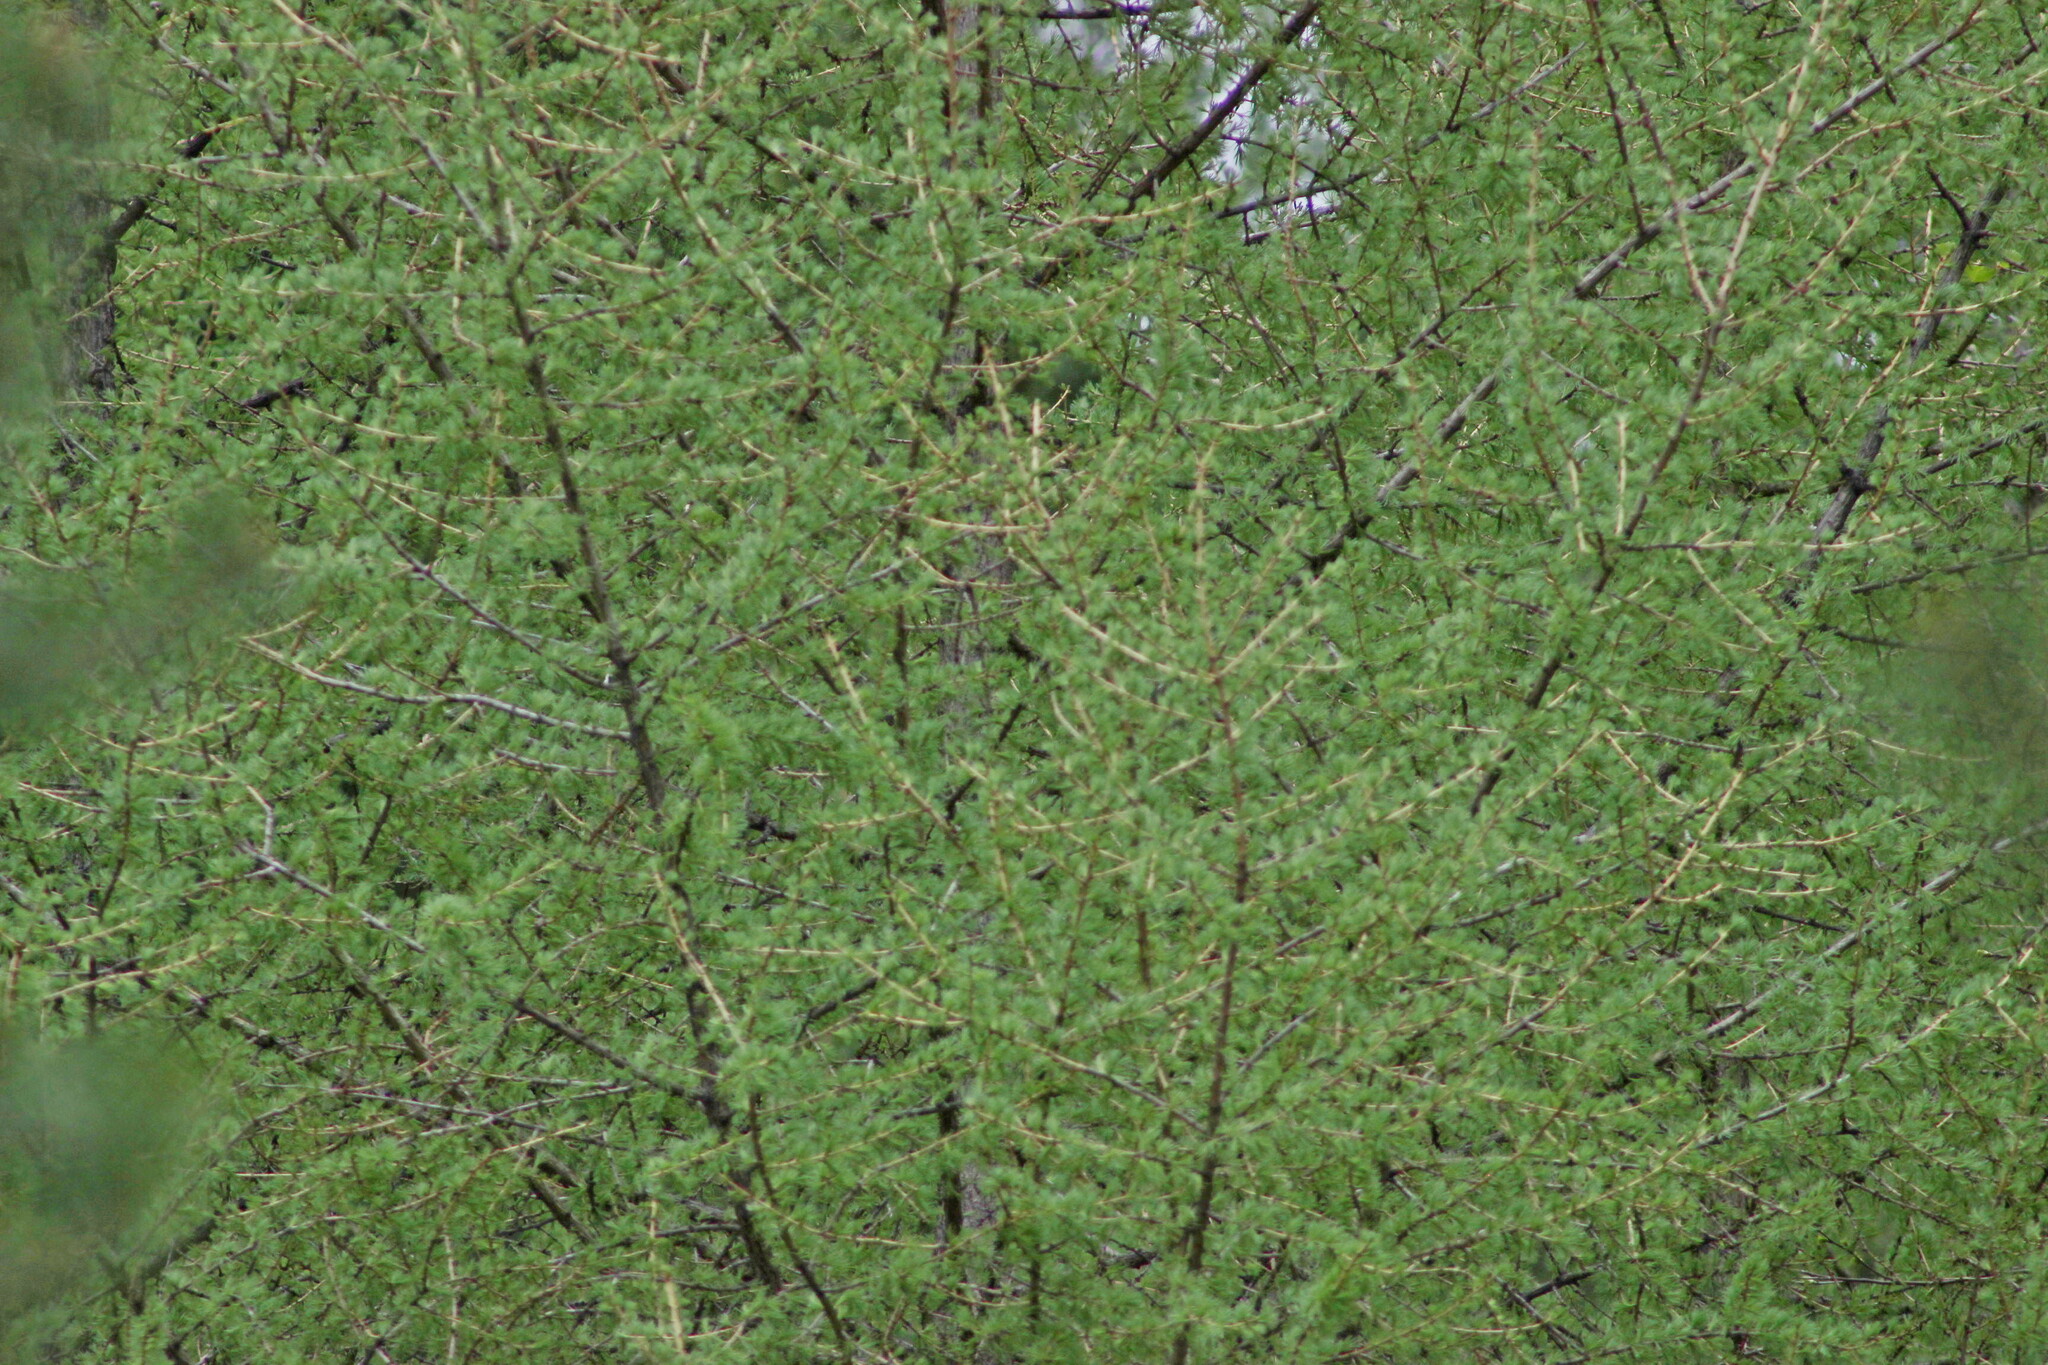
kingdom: Plantae
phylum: Tracheophyta
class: Pinopsida
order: Pinales
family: Pinaceae
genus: Larix
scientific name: Larix sibirica
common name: Siberian larch
